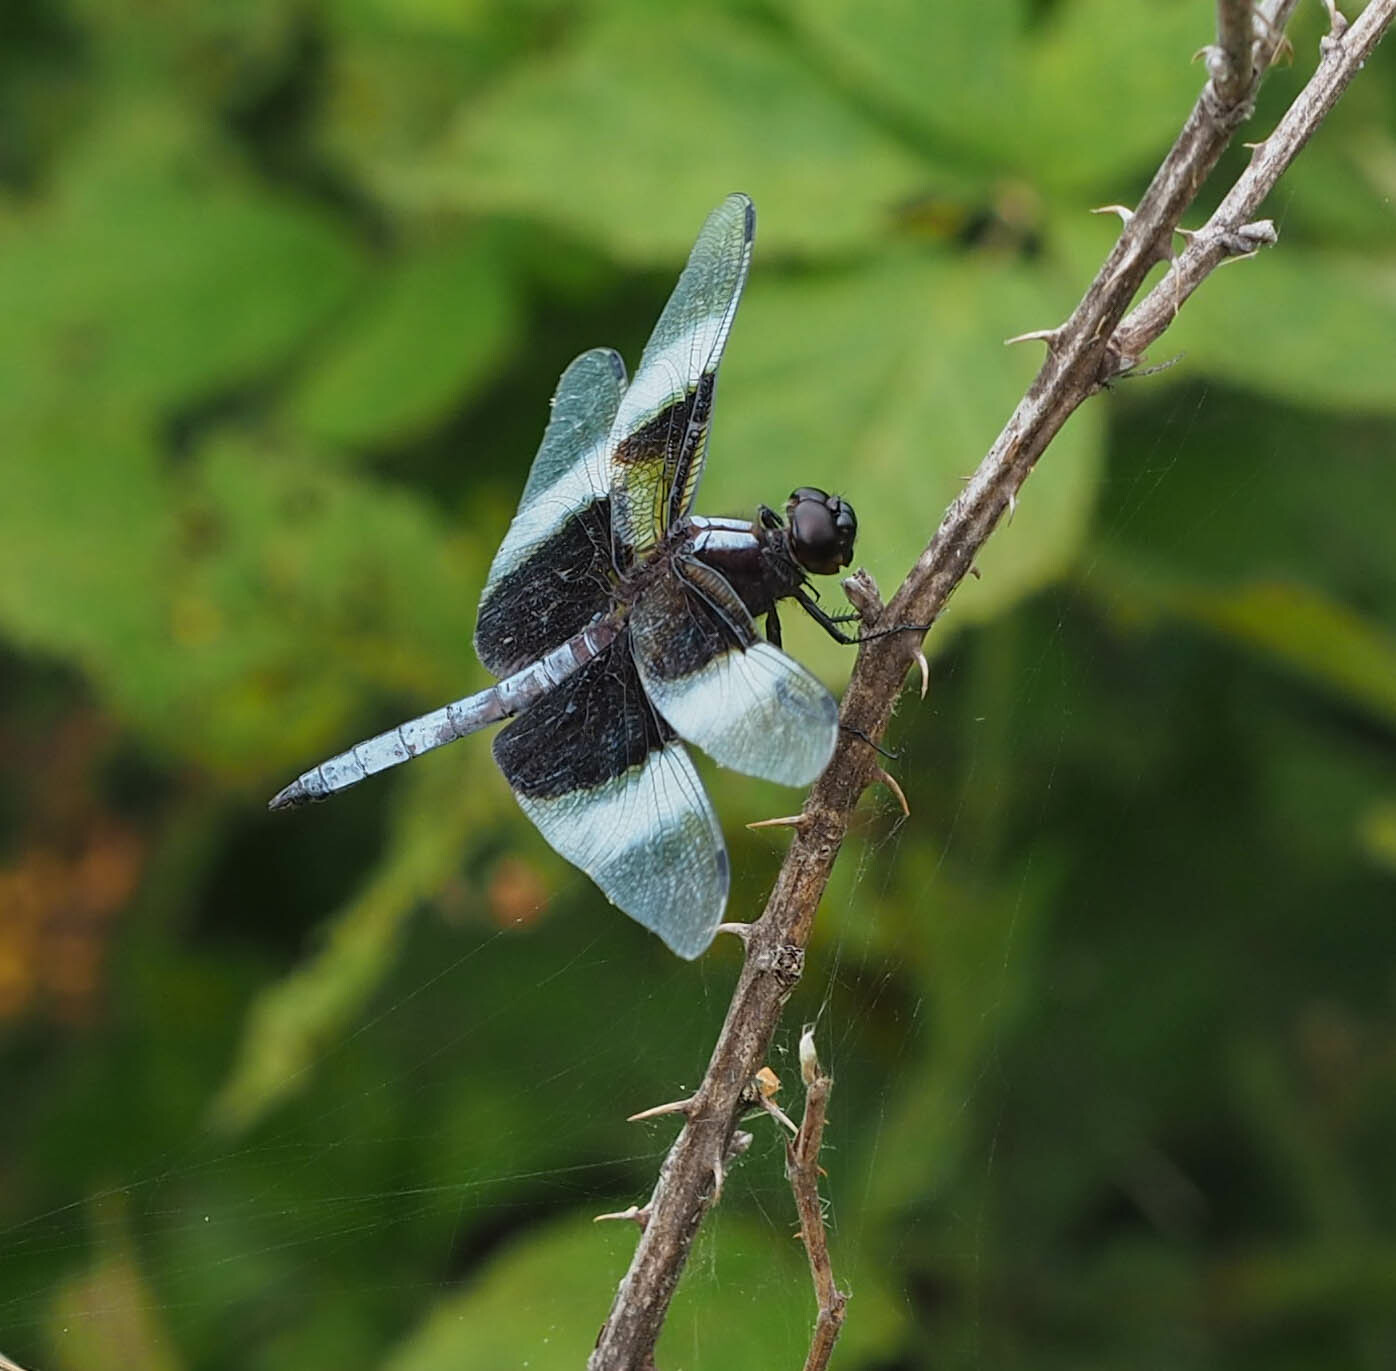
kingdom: Animalia
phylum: Arthropoda
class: Insecta
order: Odonata
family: Libellulidae
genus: Libellula
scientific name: Libellula luctuosa
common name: Widow skimmer
